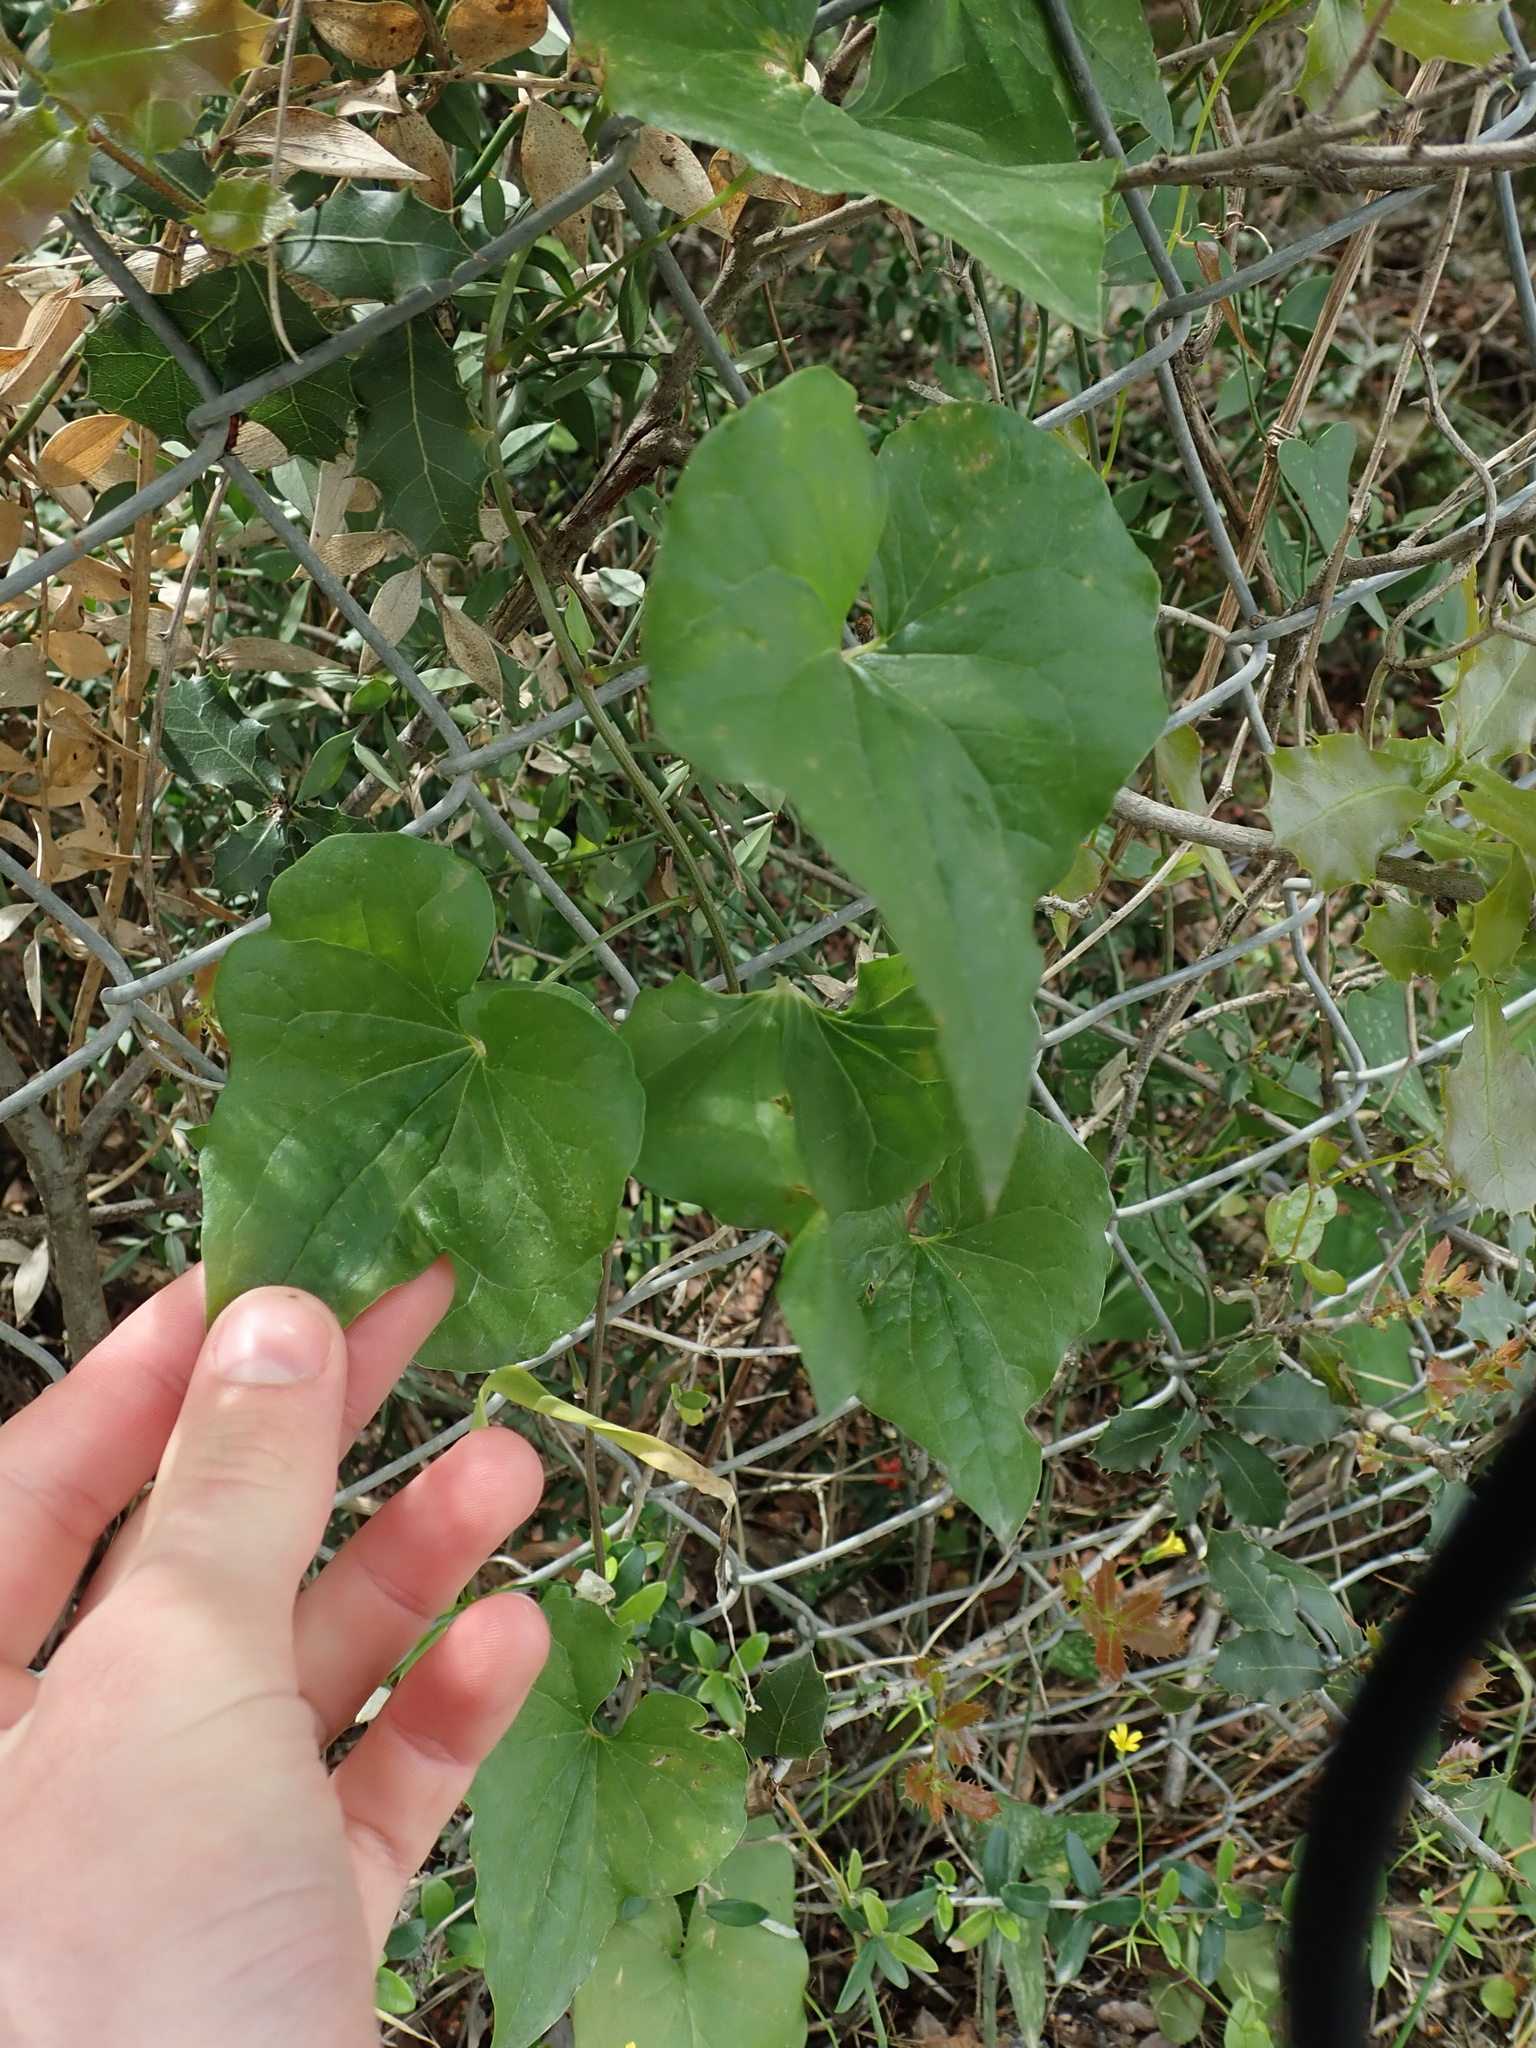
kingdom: Plantae
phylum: Tracheophyta
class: Liliopsida
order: Dioscoreales
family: Dioscoreaceae
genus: Dioscorea
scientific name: Dioscorea communis
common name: Black-bindweed
